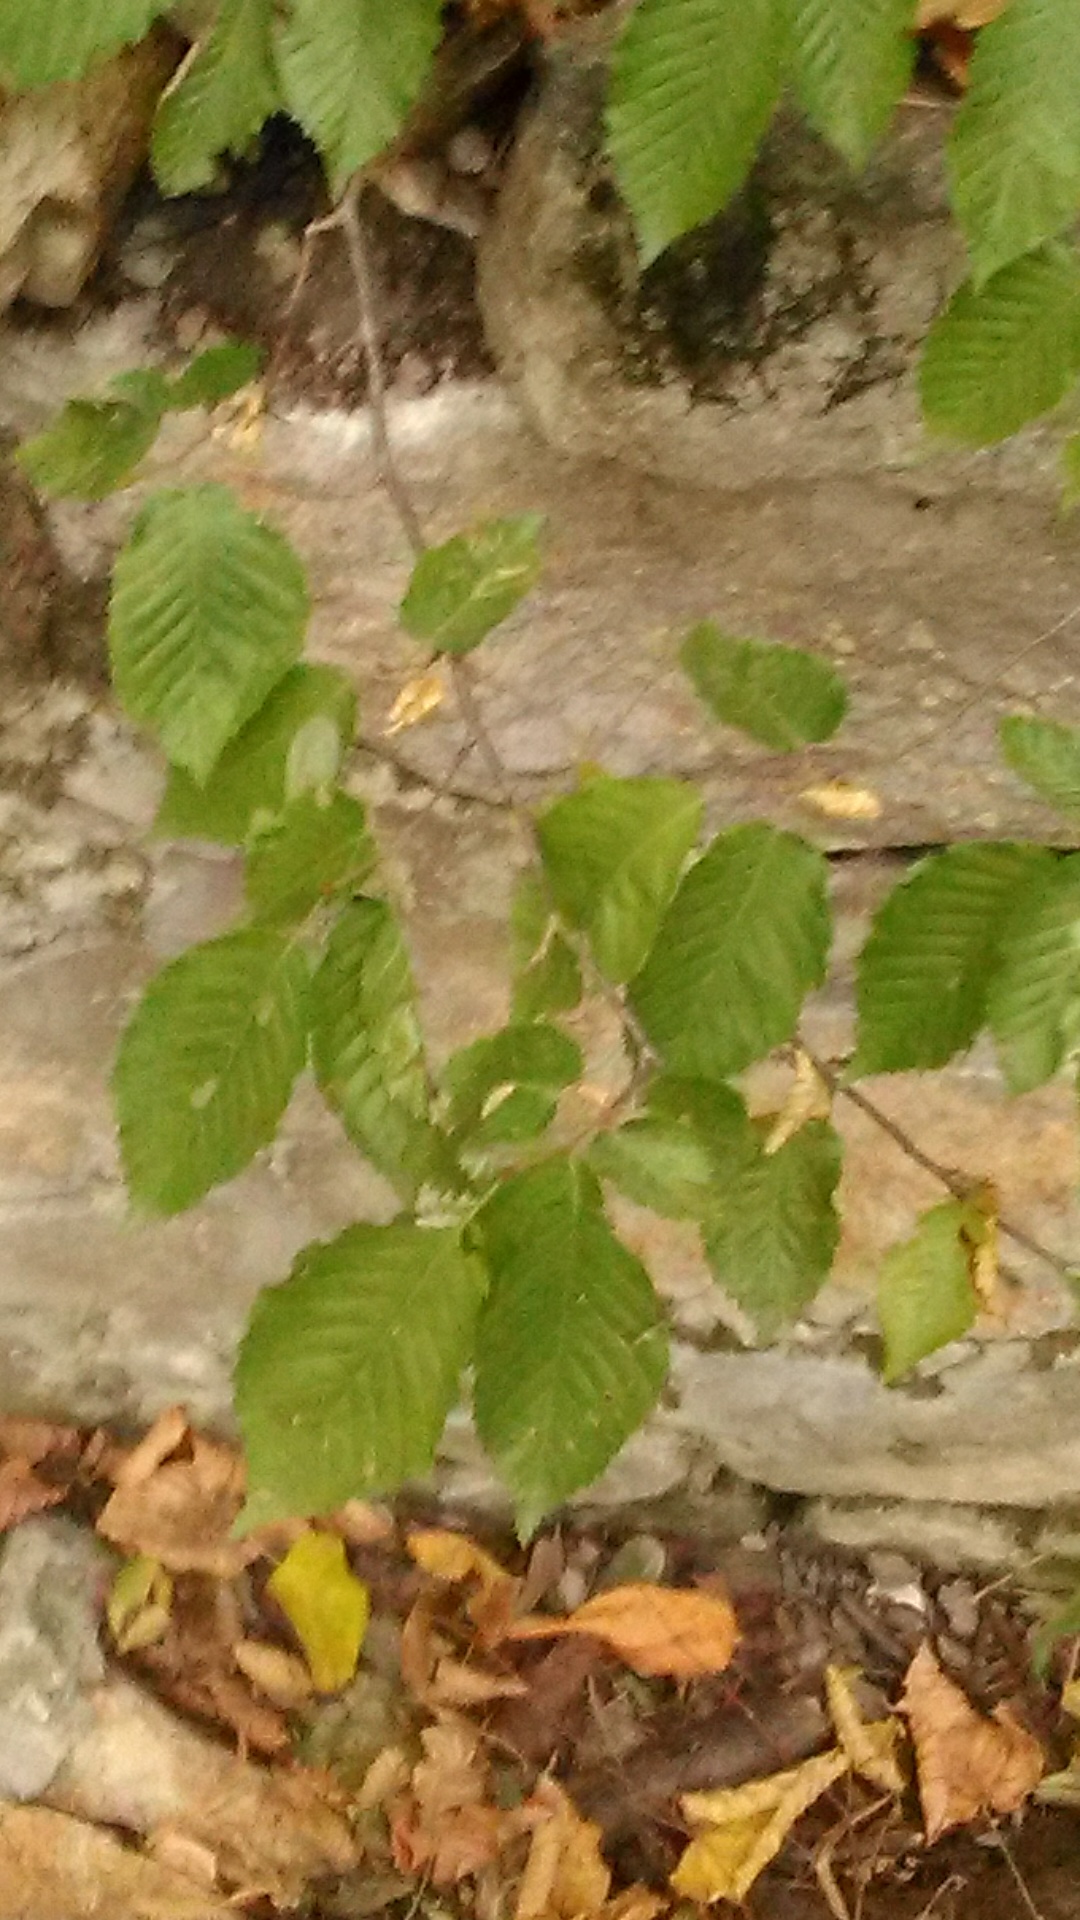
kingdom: Plantae
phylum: Tracheophyta
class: Magnoliopsida
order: Fagales
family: Betulaceae
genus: Carpinus
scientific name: Carpinus betulus
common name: Hornbeam
